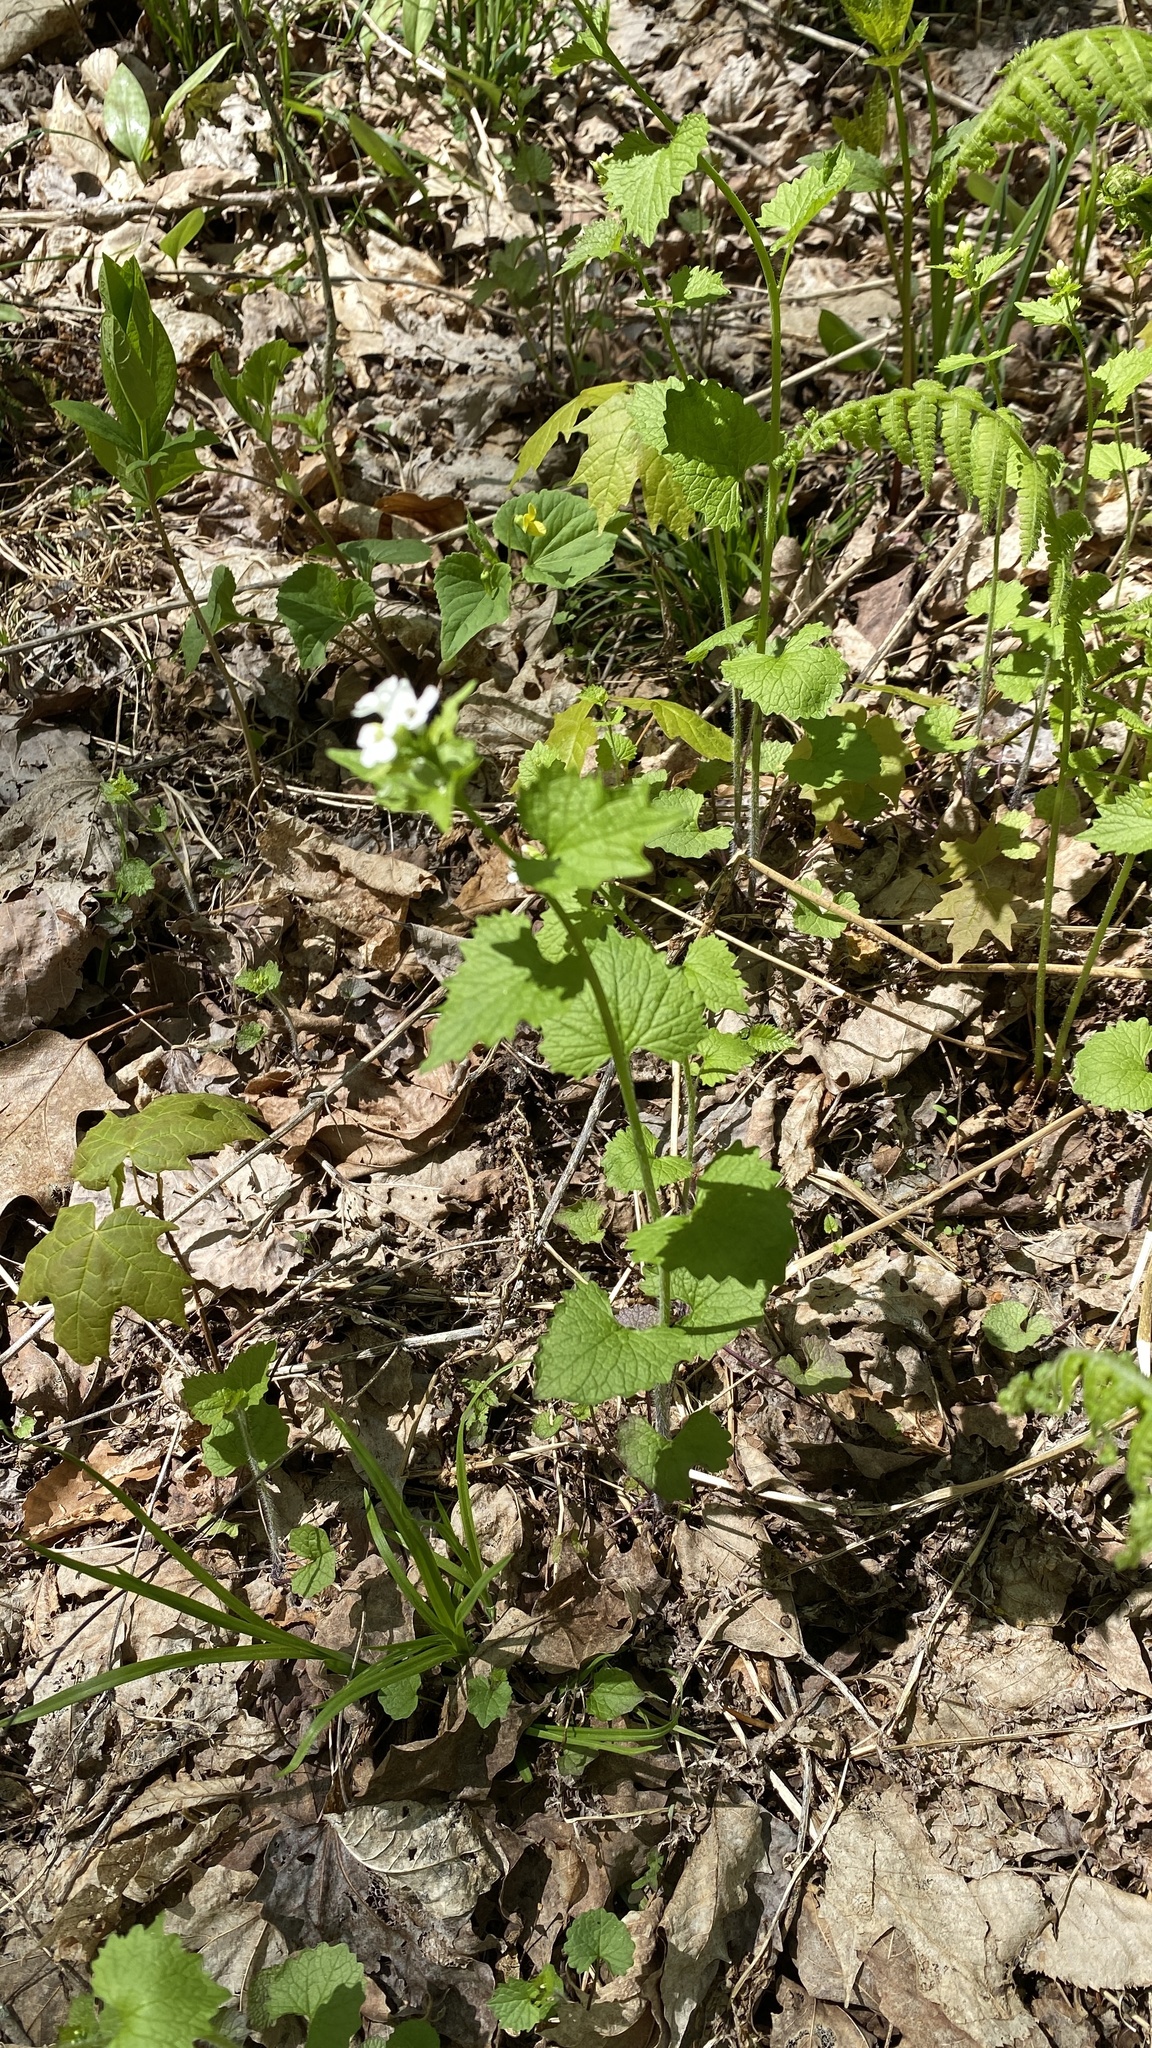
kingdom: Plantae
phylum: Tracheophyta
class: Magnoliopsida
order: Brassicales
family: Brassicaceae
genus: Alliaria
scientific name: Alliaria petiolata
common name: Garlic mustard
